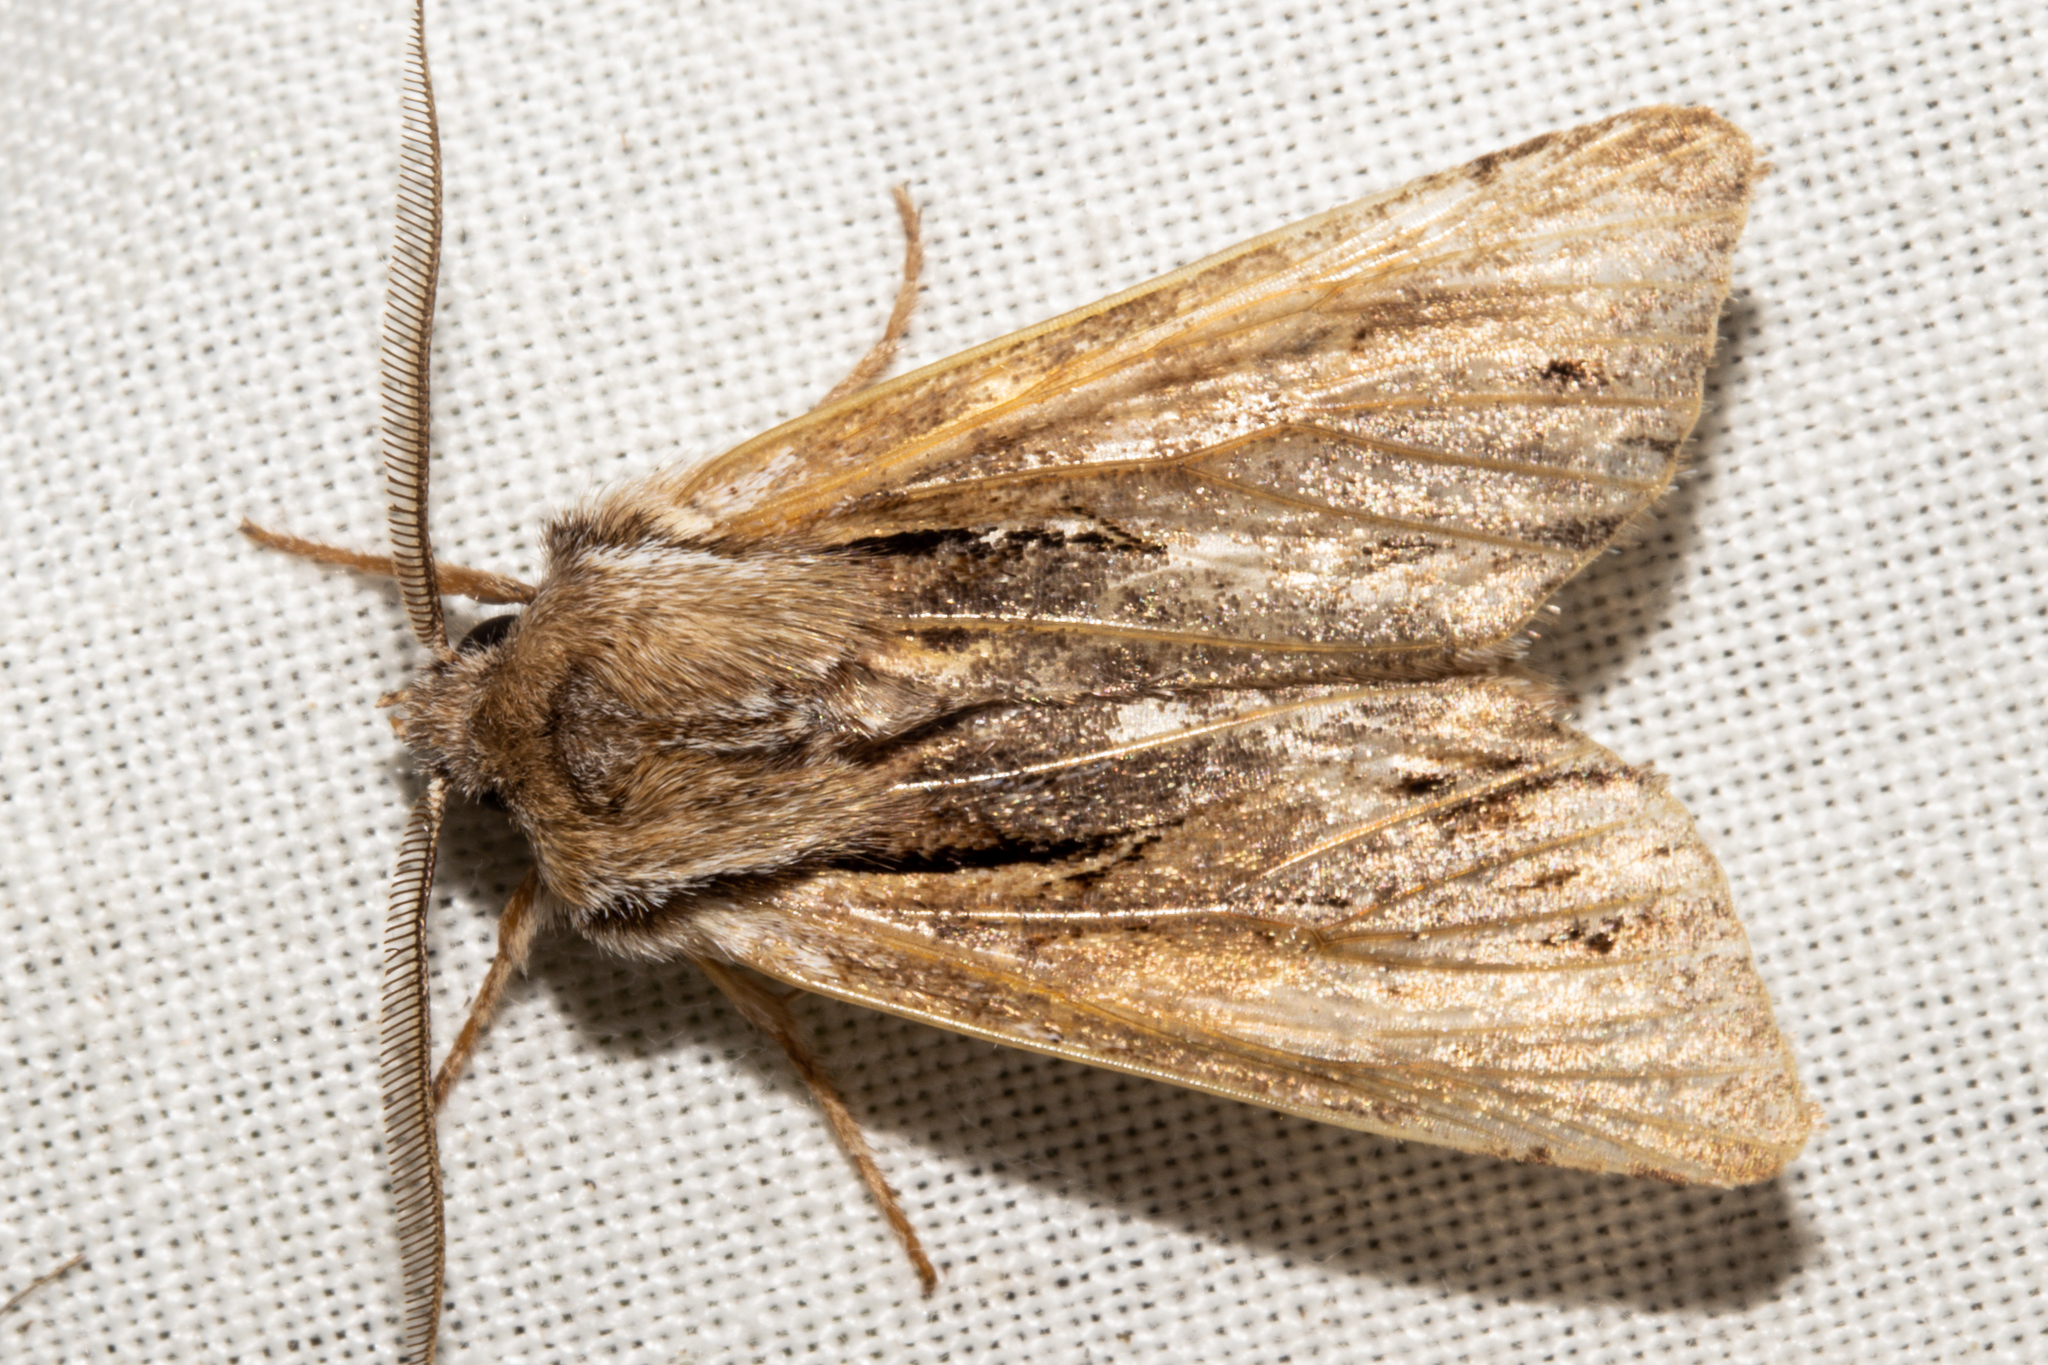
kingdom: Animalia
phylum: Arthropoda
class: Insecta
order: Lepidoptera
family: Noctuidae
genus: Ichneutica
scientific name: Ichneutica
